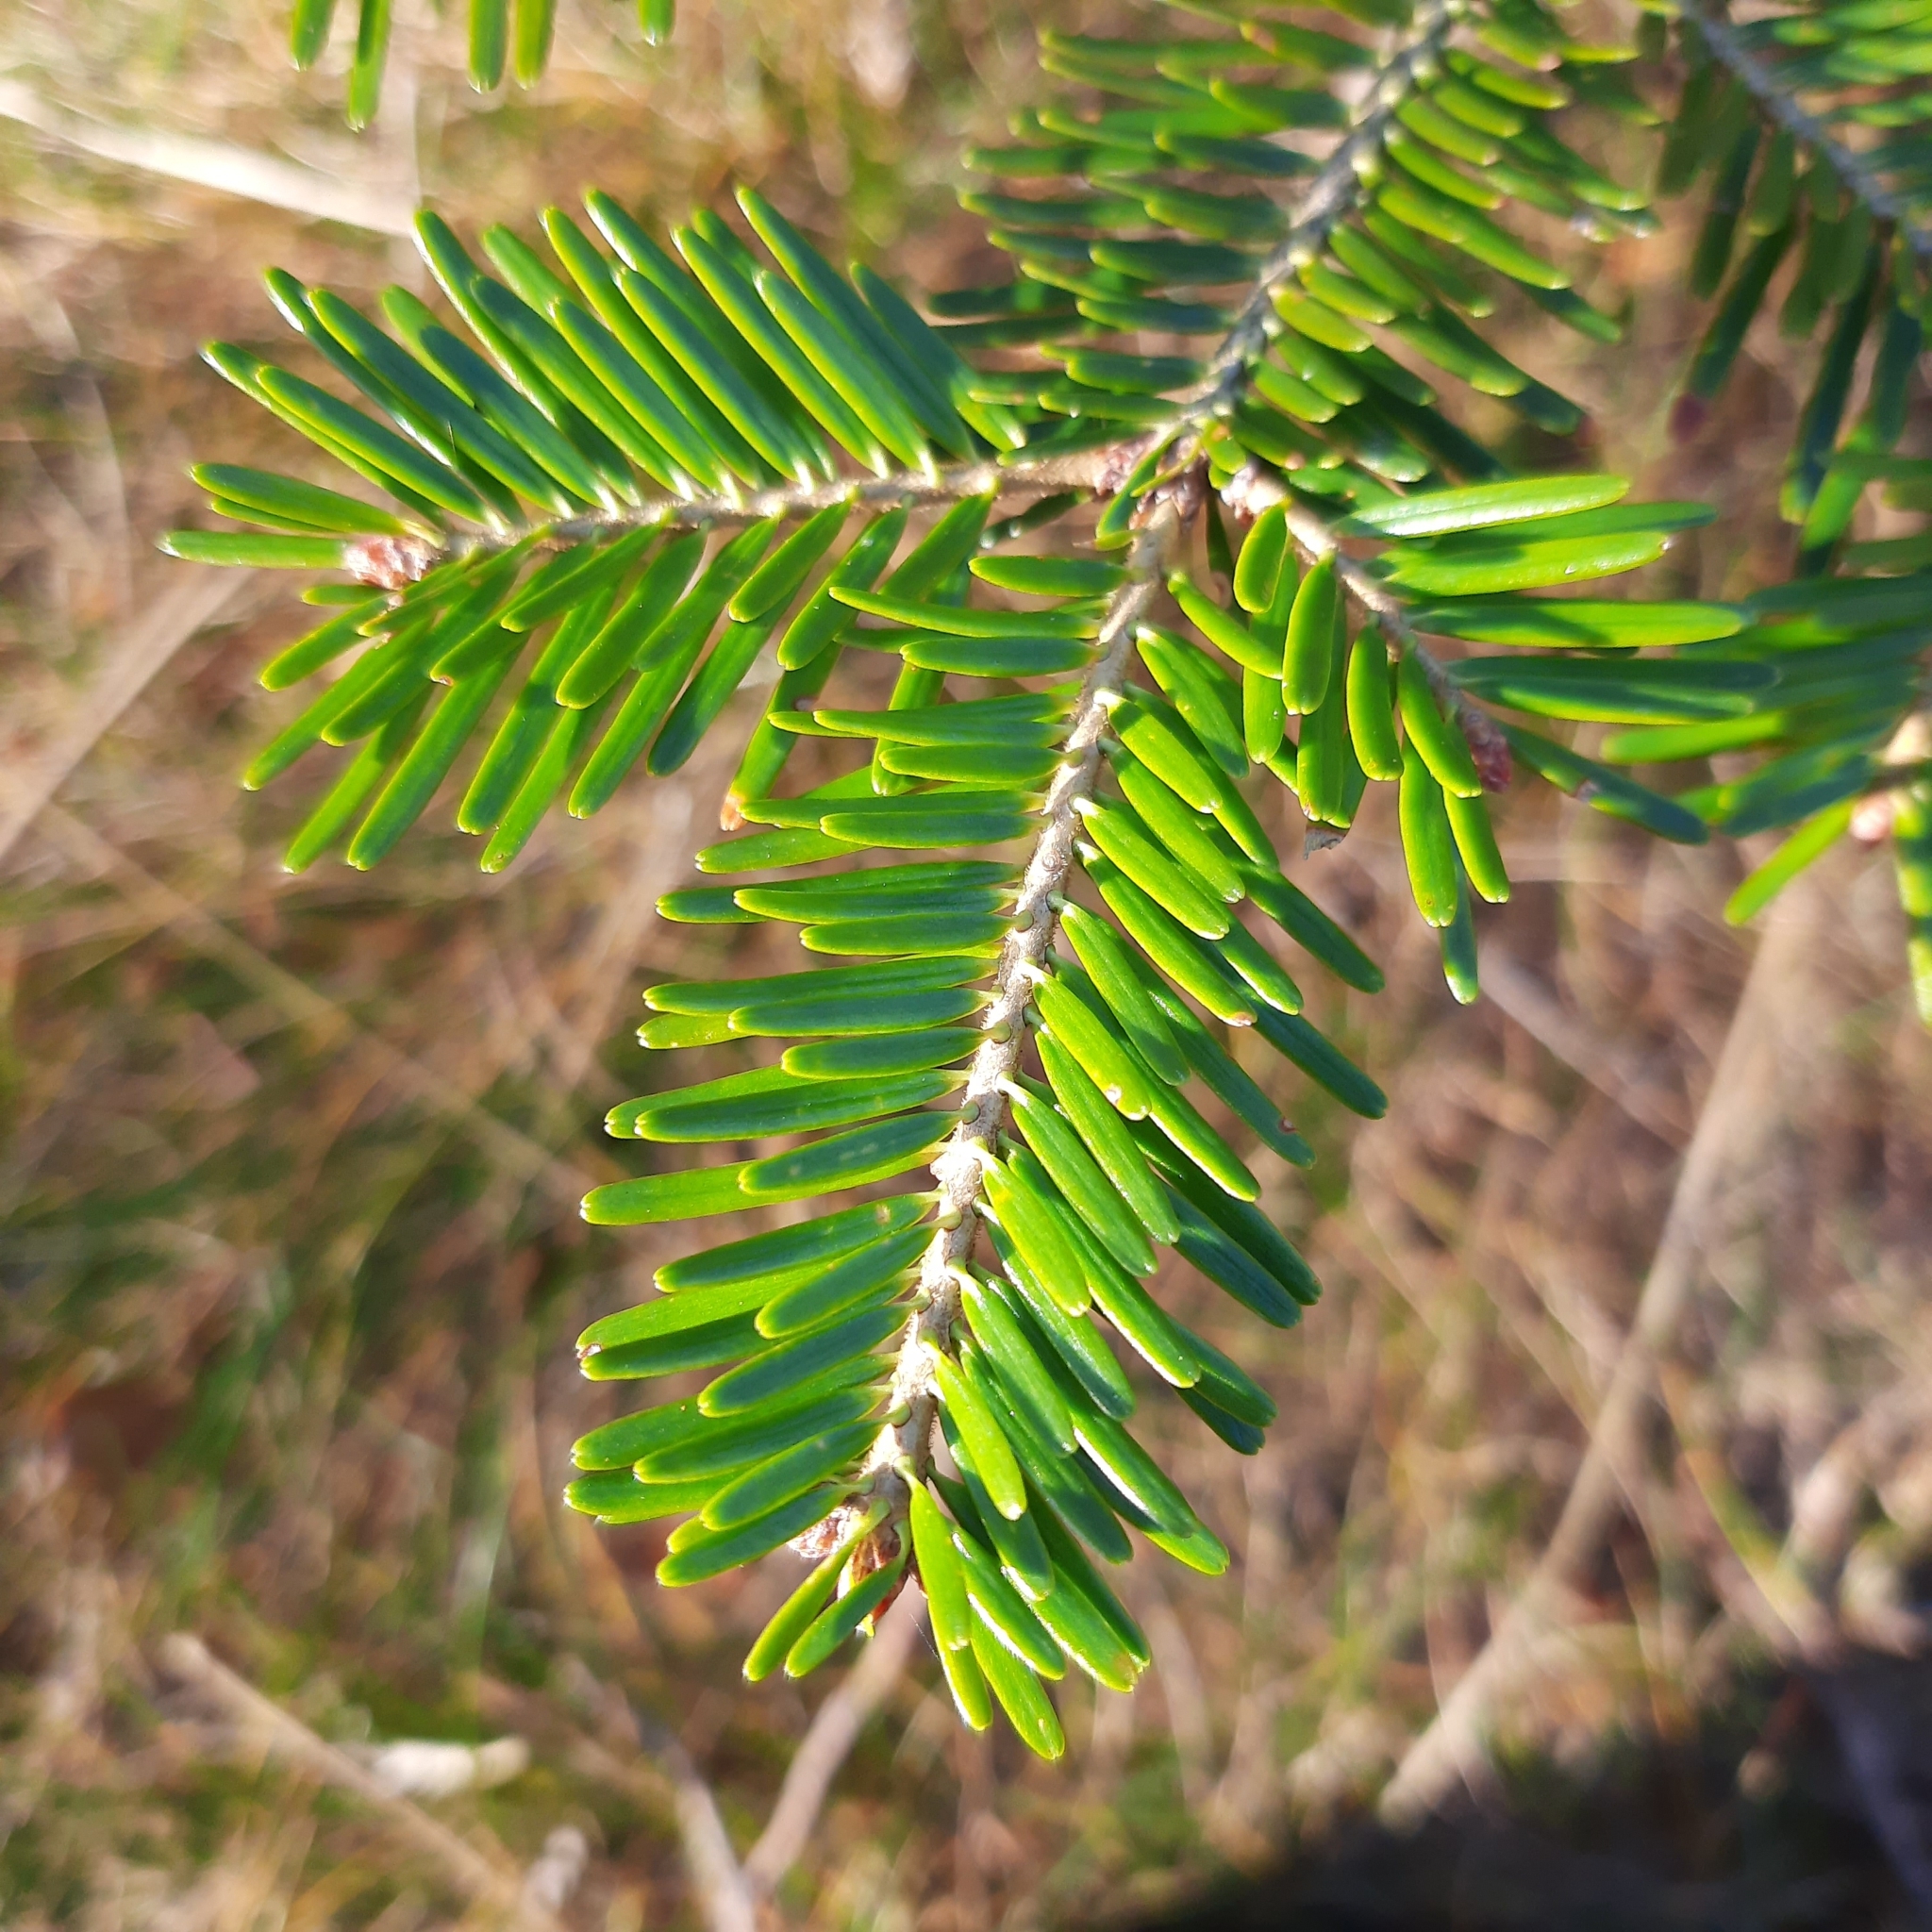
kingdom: Plantae
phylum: Tracheophyta
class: Pinopsida
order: Pinales
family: Pinaceae
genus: Abies
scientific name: Abies alba
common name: Silver fir
